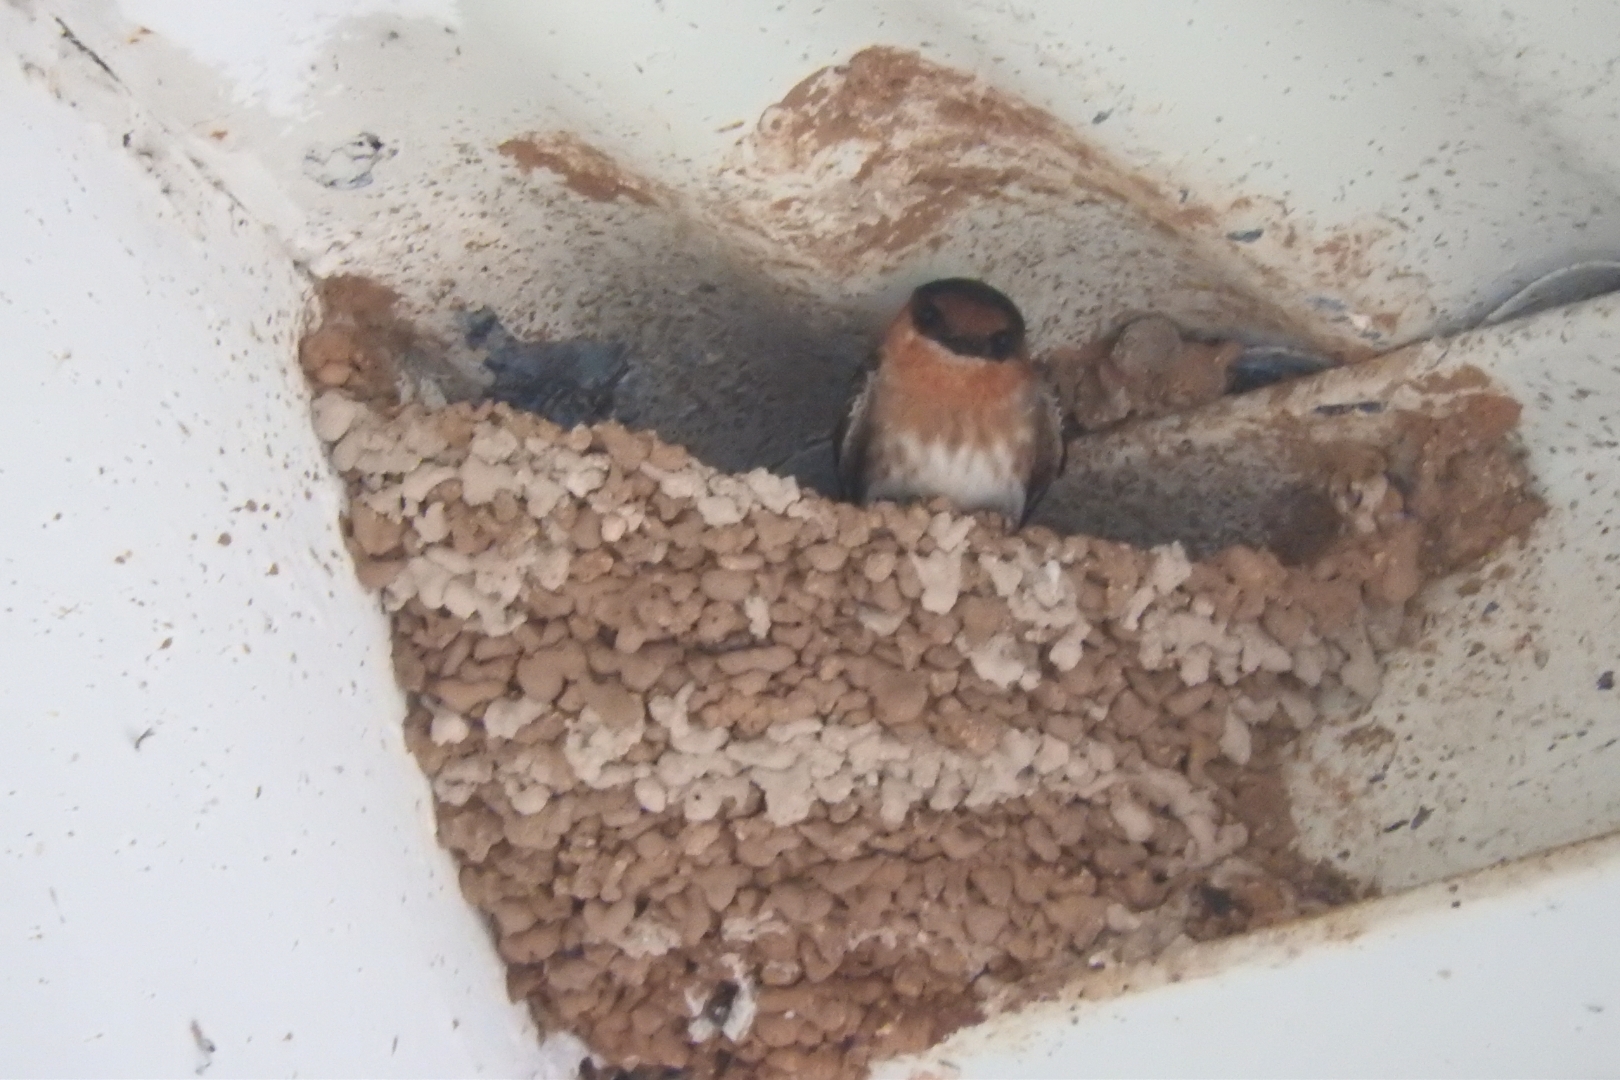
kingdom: Animalia
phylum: Chordata
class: Aves
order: Passeriformes
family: Hirundinidae
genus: Petrochelidon
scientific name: Petrochelidon fulva
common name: Cave swallow
